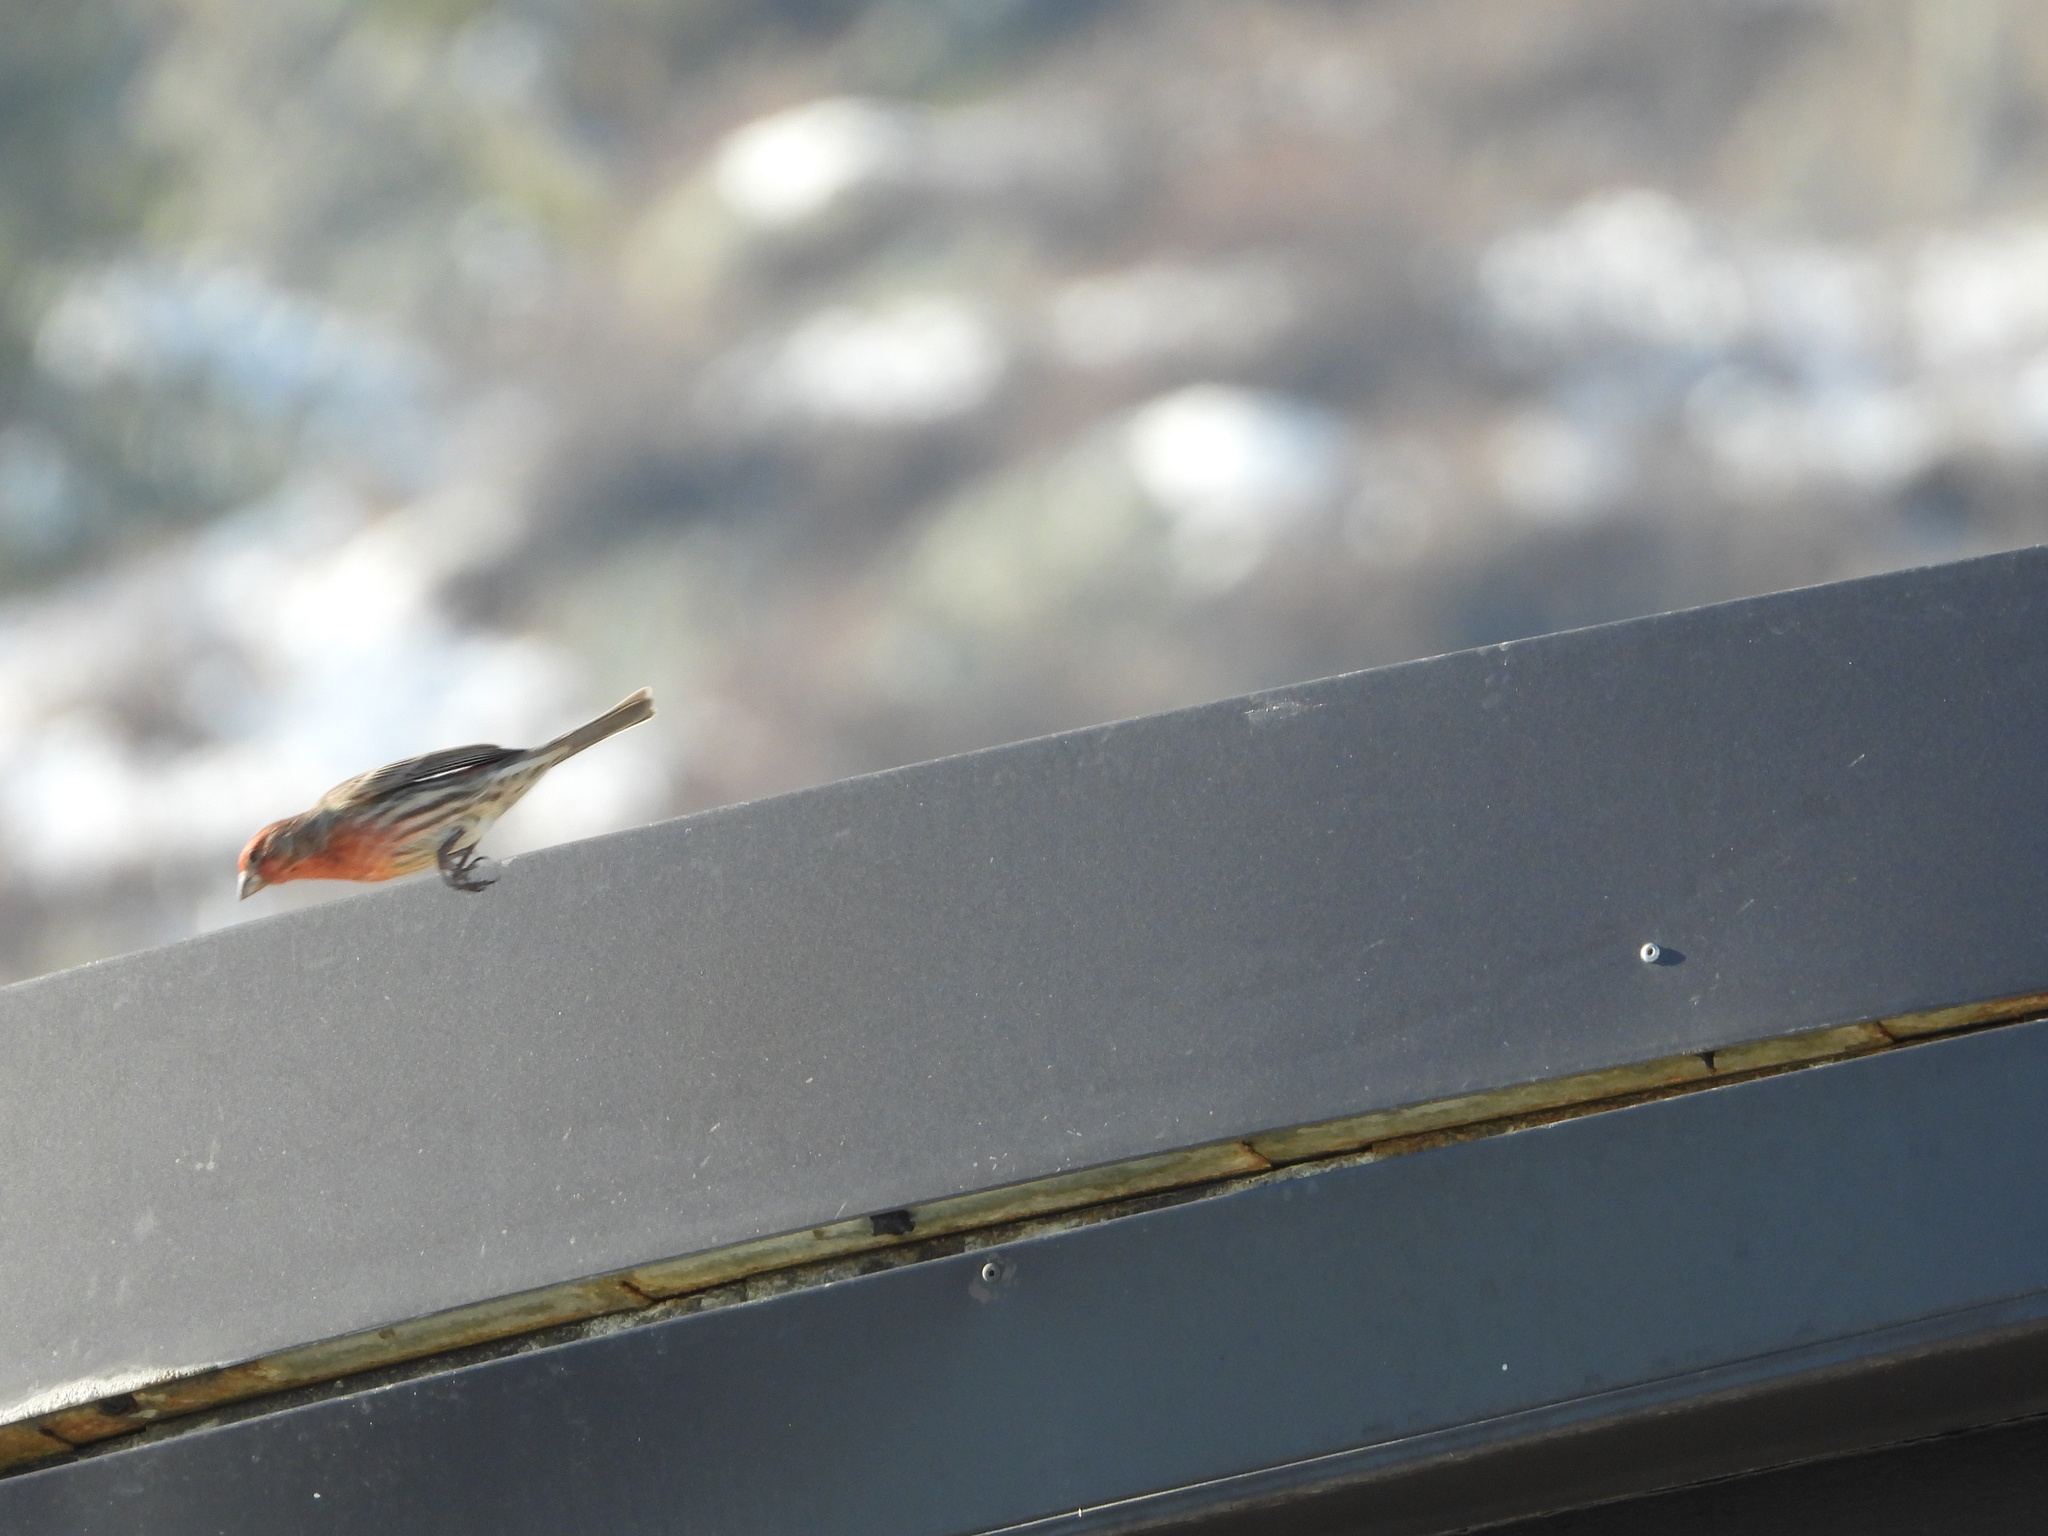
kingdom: Animalia
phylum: Chordata
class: Aves
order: Passeriformes
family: Fringillidae
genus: Haemorhous
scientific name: Haemorhous mexicanus
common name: House finch
